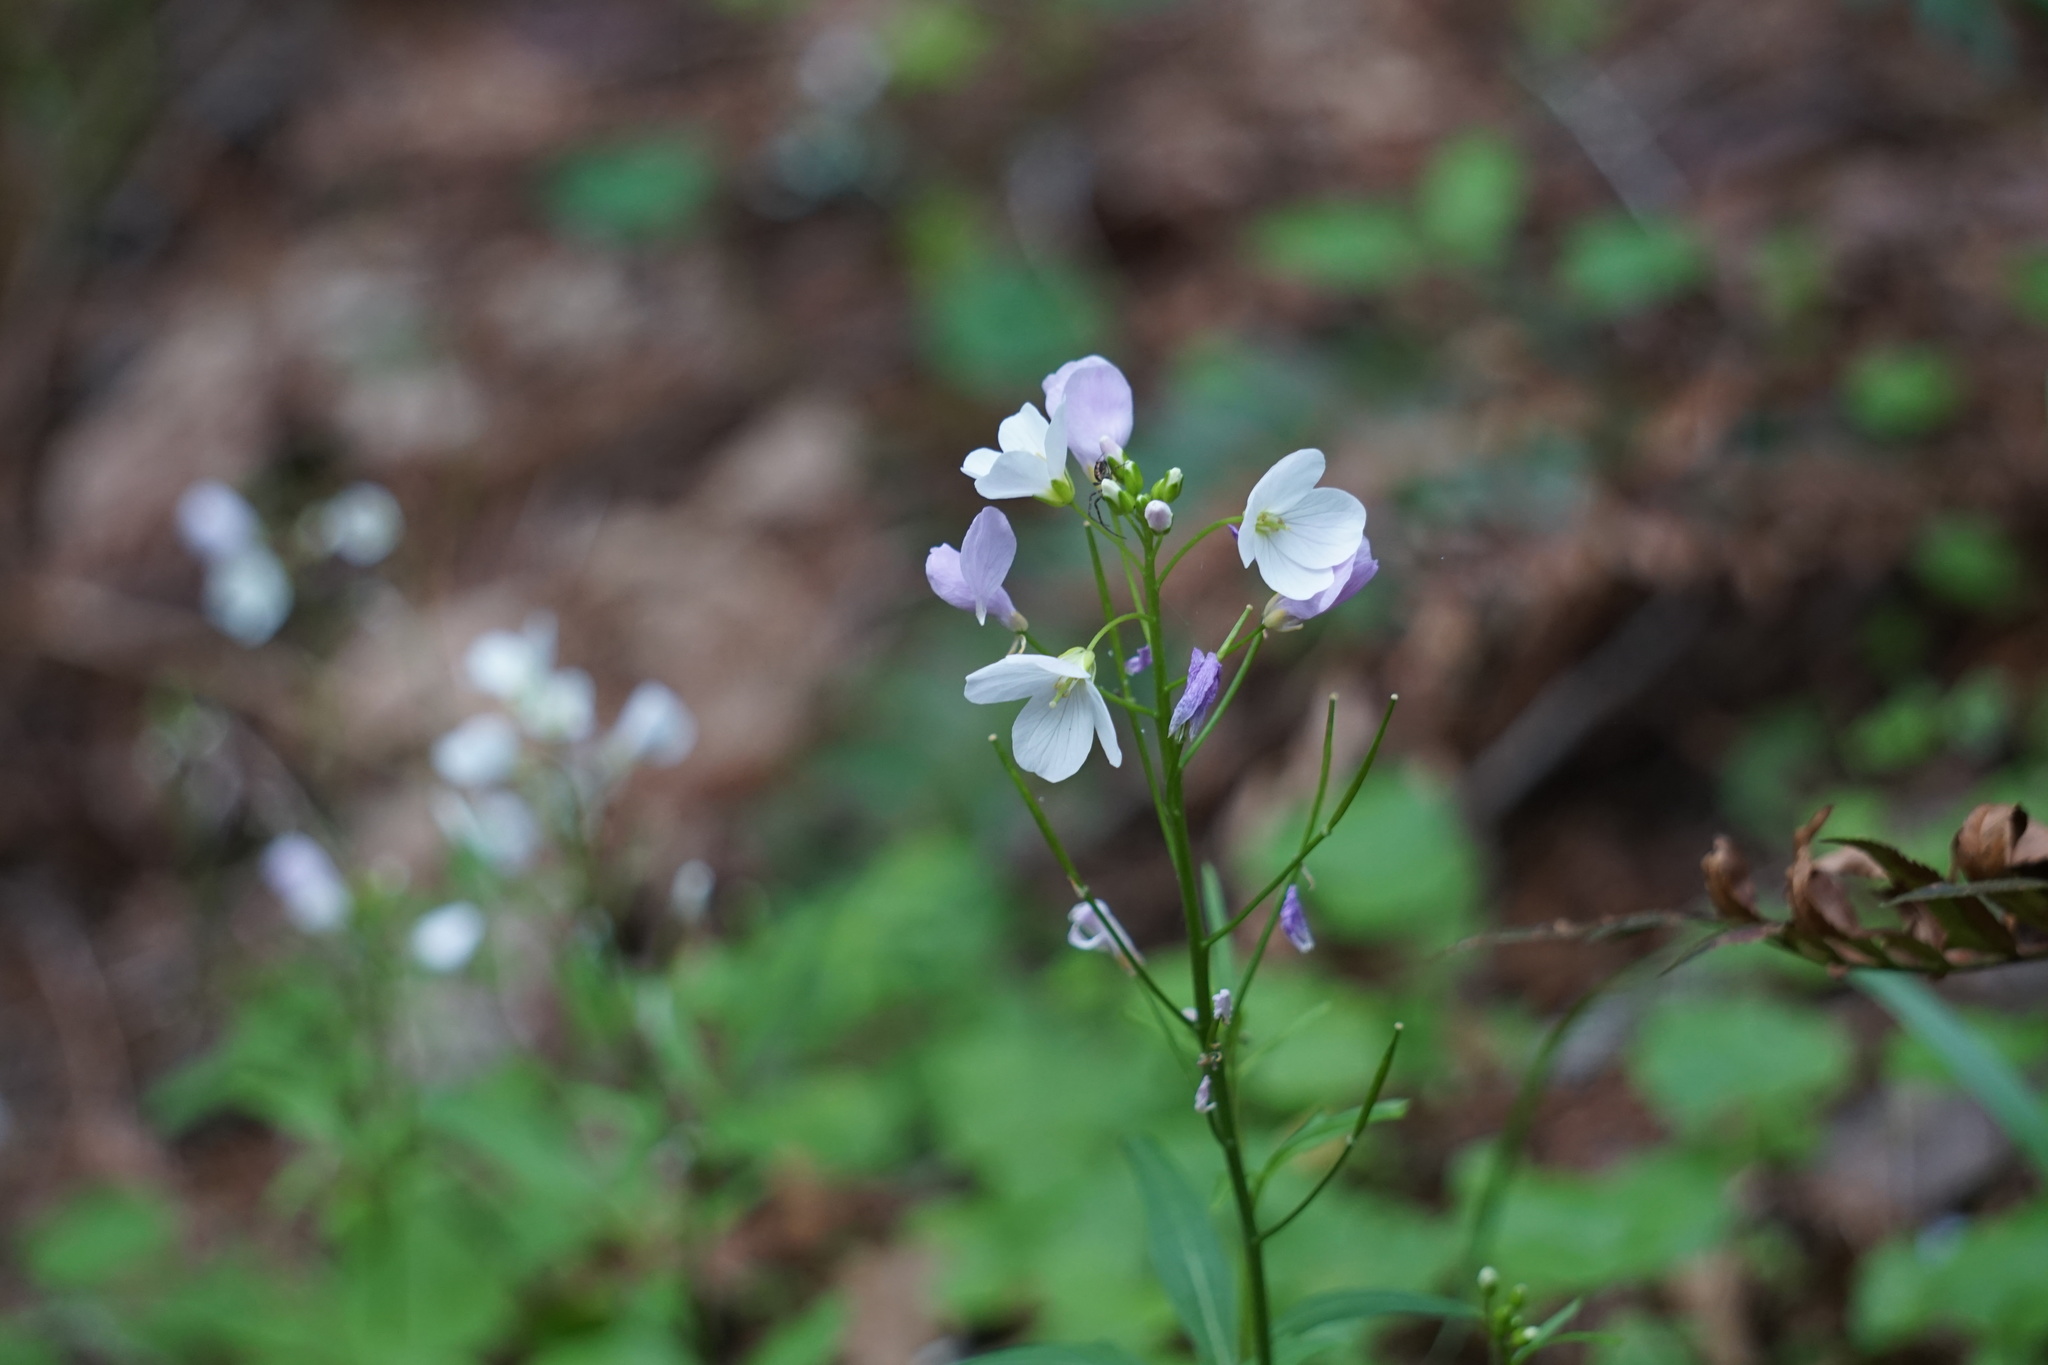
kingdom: Plantae
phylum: Tracheophyta
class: Magnoliopsida
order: Brassicales
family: Brassicaceae
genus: Cardamine
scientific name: Cardamine californica
